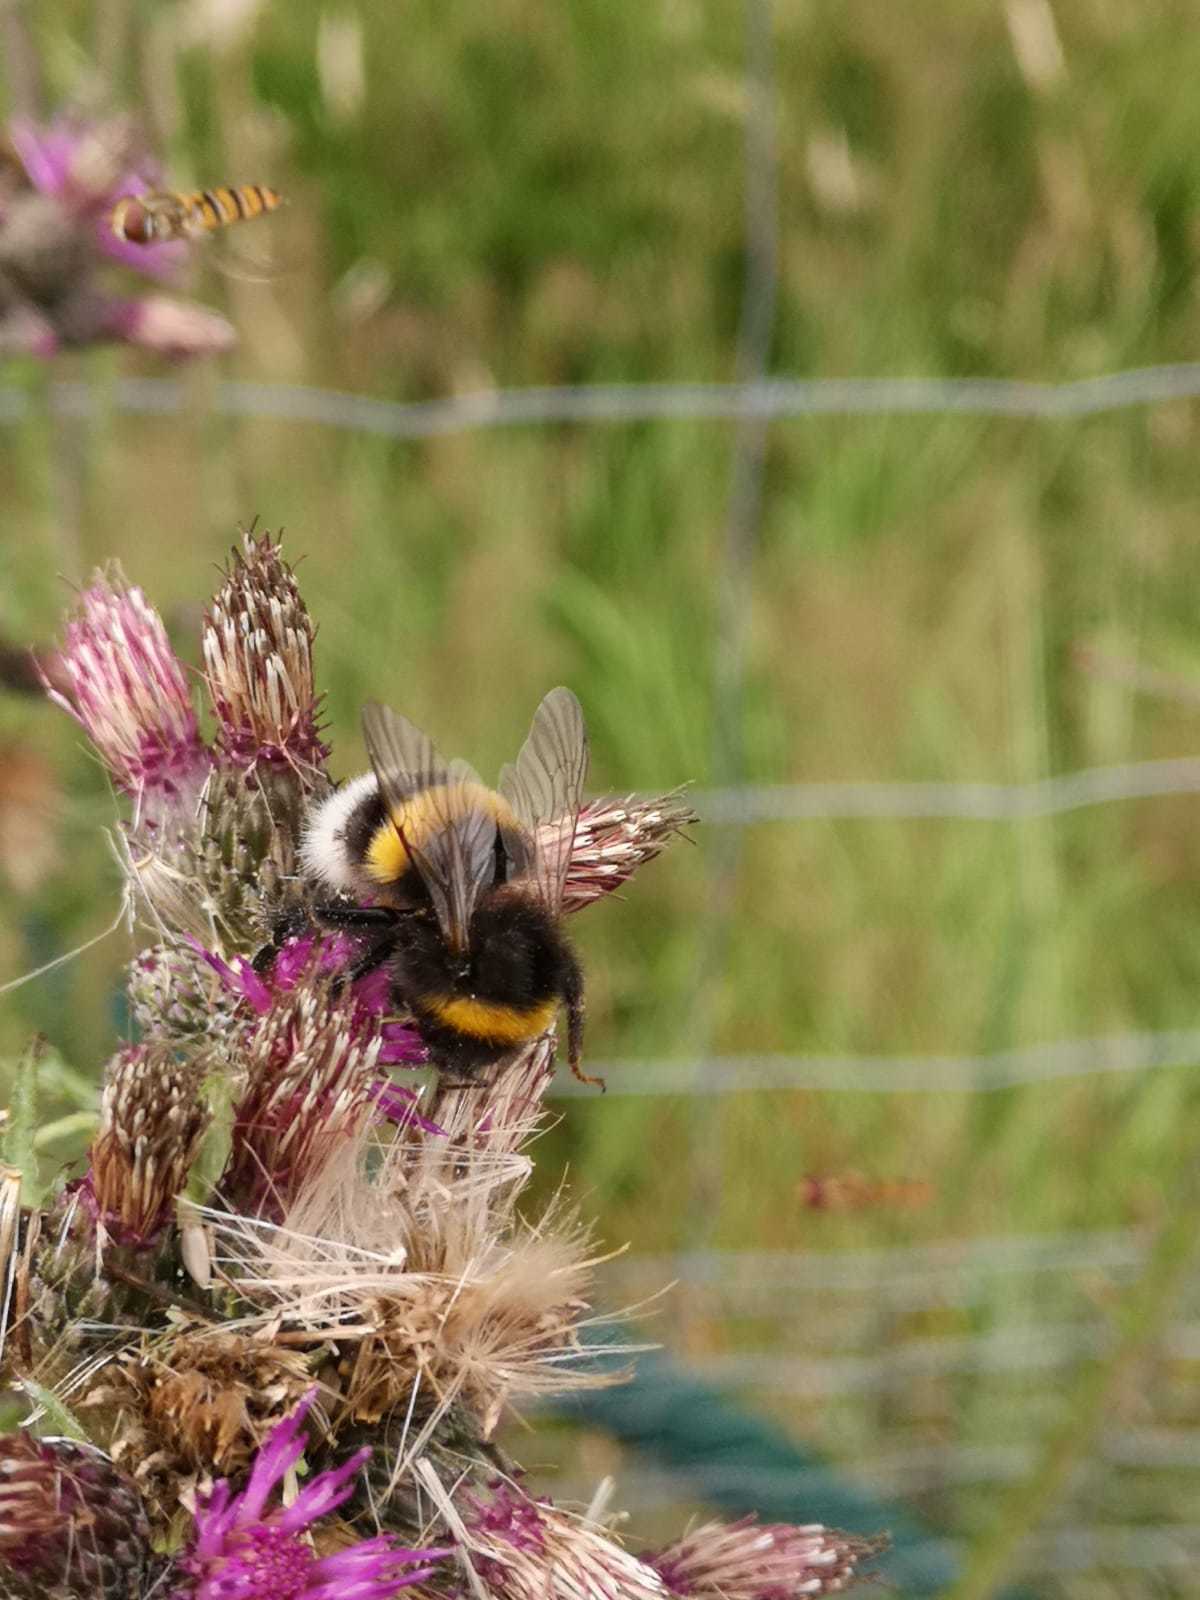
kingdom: Animalia
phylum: Arthropoda
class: Insecta
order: Hymenoptera
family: Apidae
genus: Bombus
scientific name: Bombus terrestris
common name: Buff-tailed bumblebee
